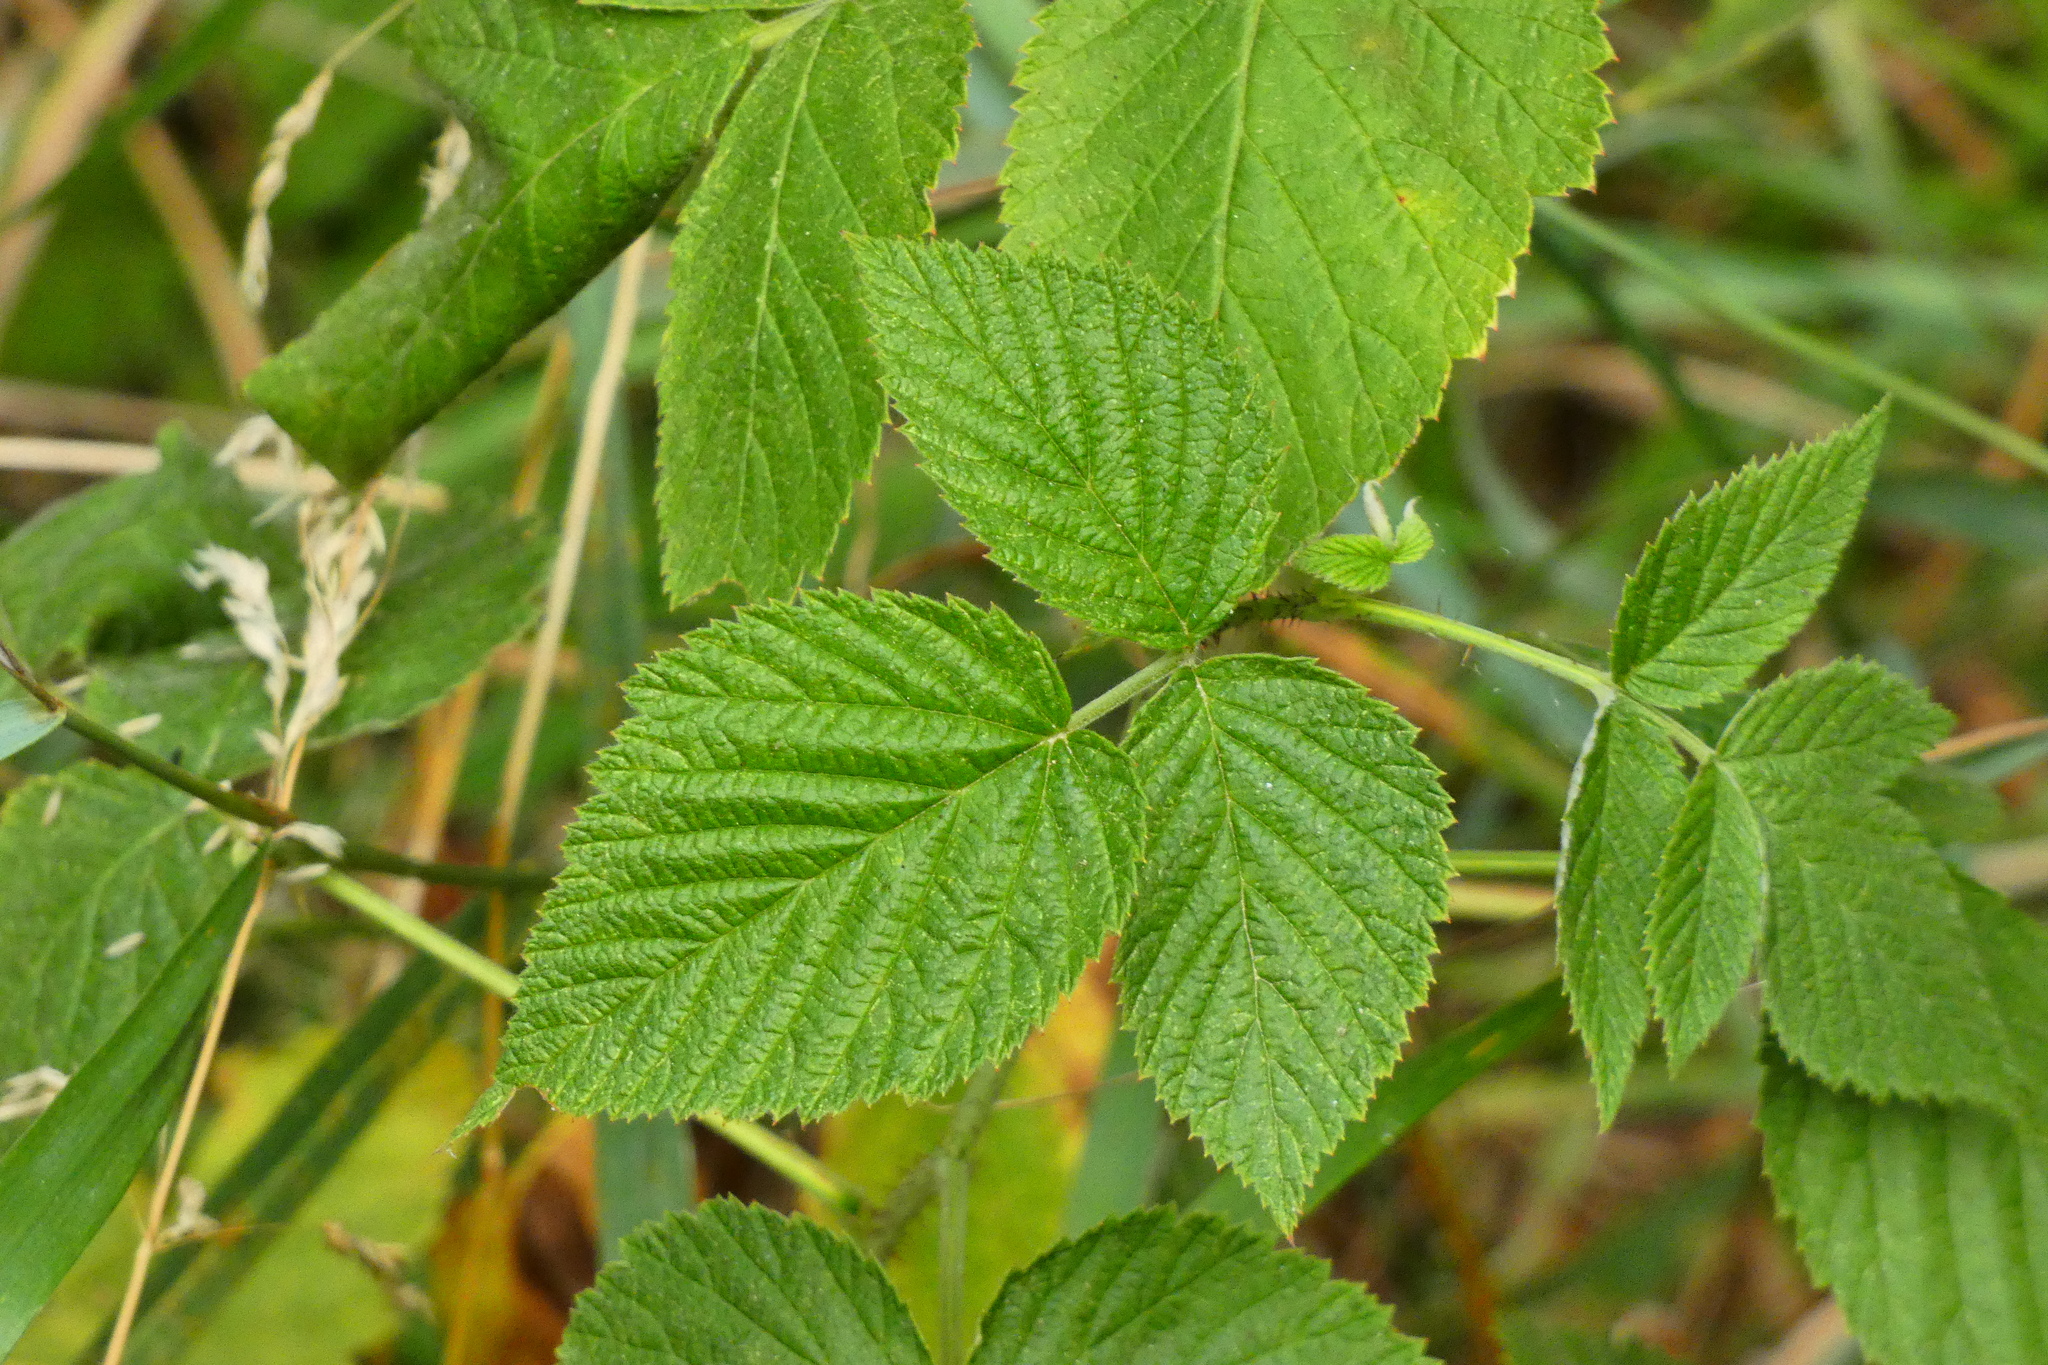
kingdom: Plantae
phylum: Tracheophyta
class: Magnoliopsida
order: Rosales
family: Rosaceae
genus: Rubus
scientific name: Rubus idaeus
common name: Raspberry
